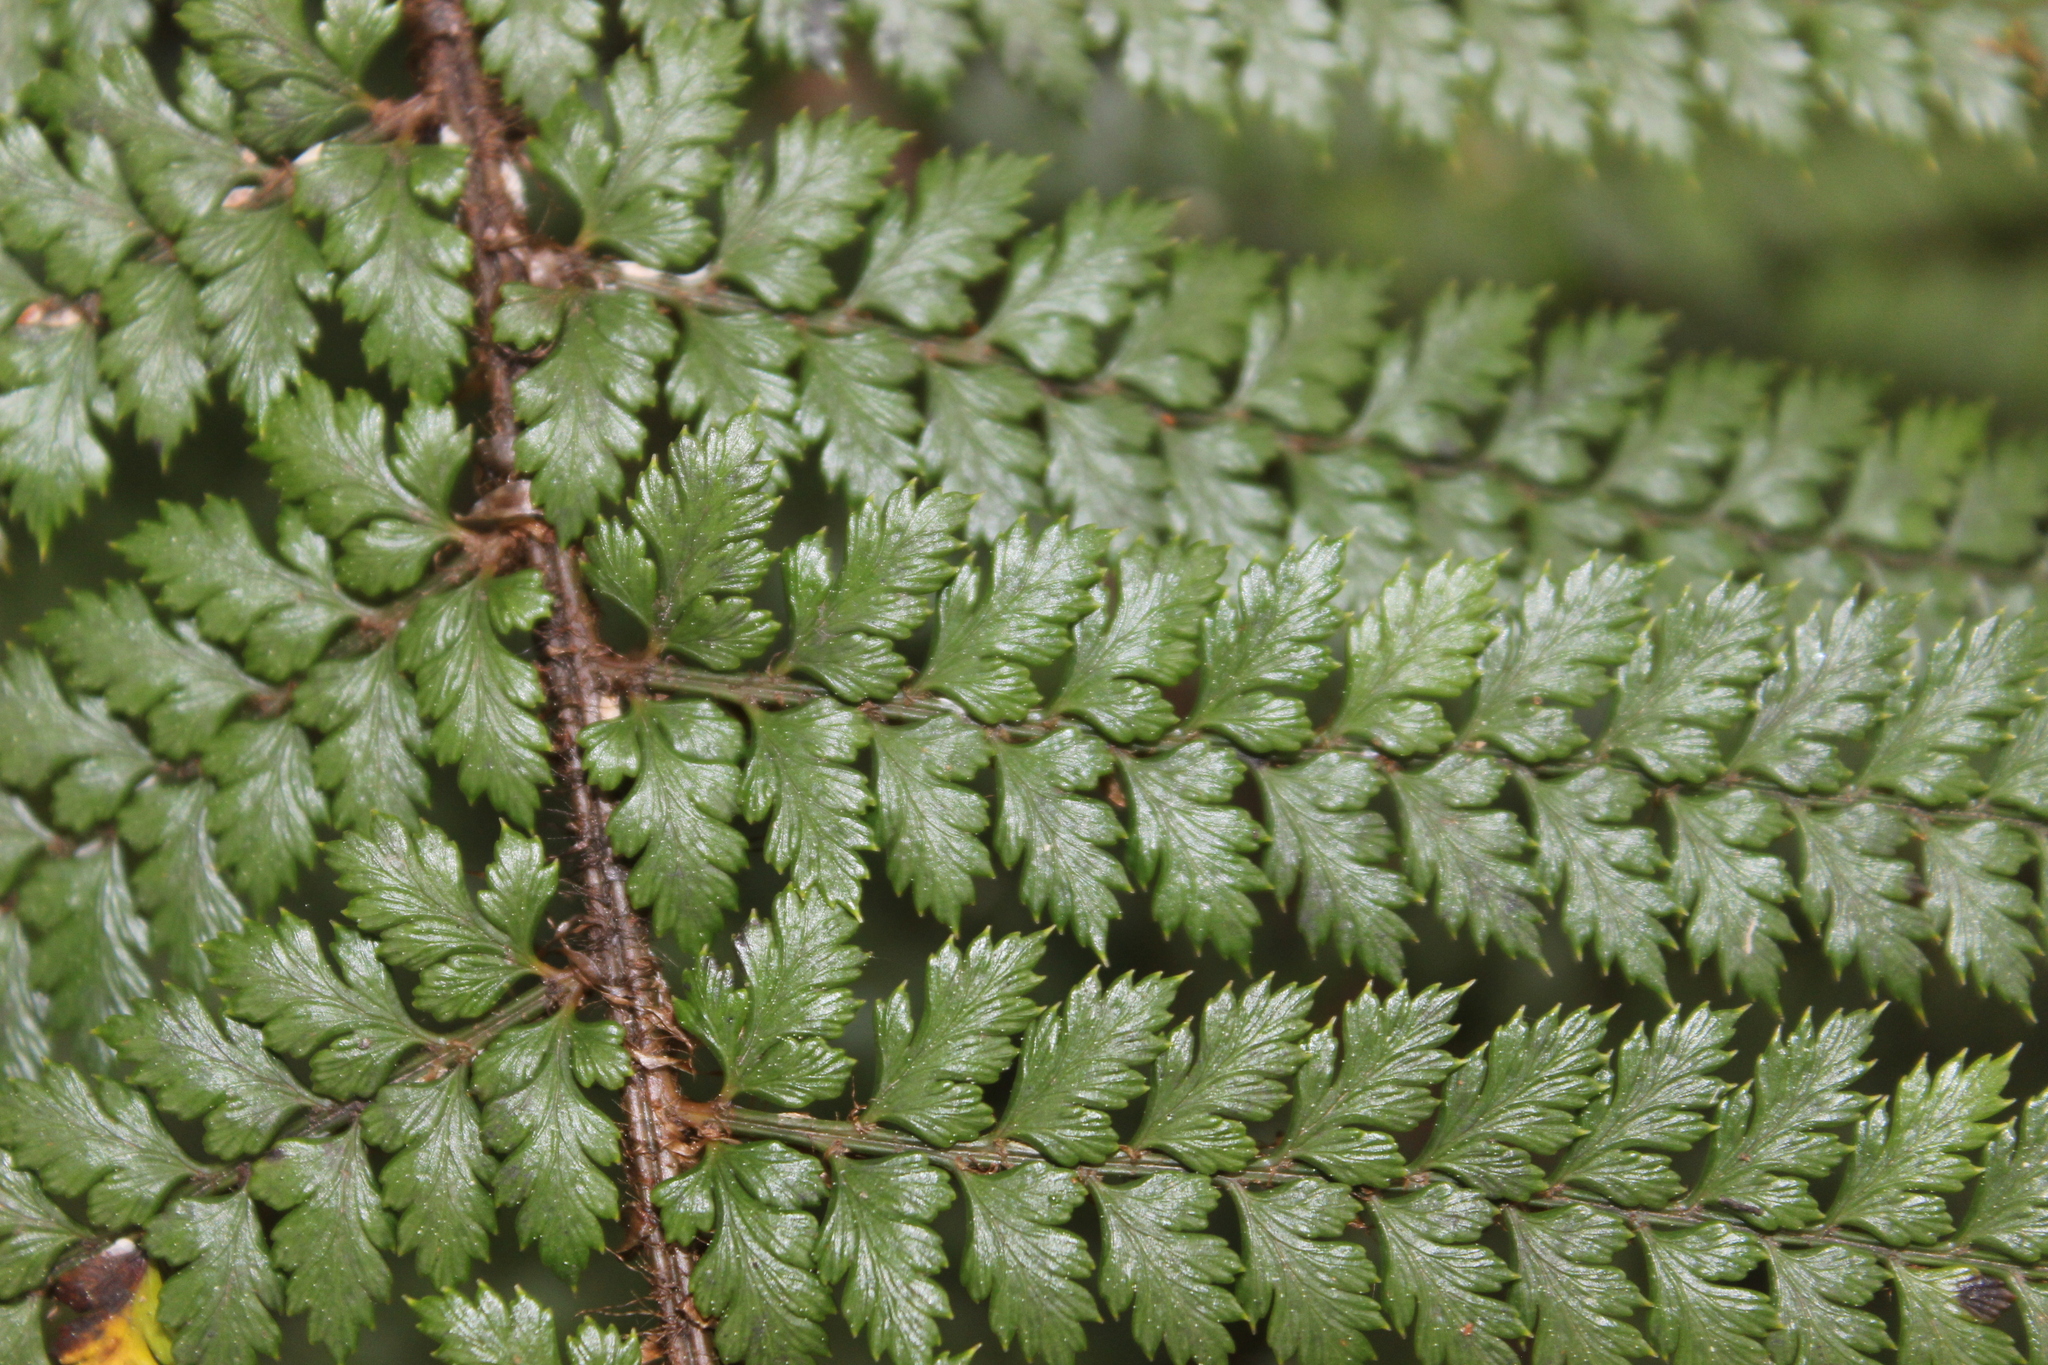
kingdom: Plantae
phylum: Tracheophyta
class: Polypodiopsida
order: Polypodiales
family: Dryopteridaceae
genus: Polystichum
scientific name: Polystichum vestitum
